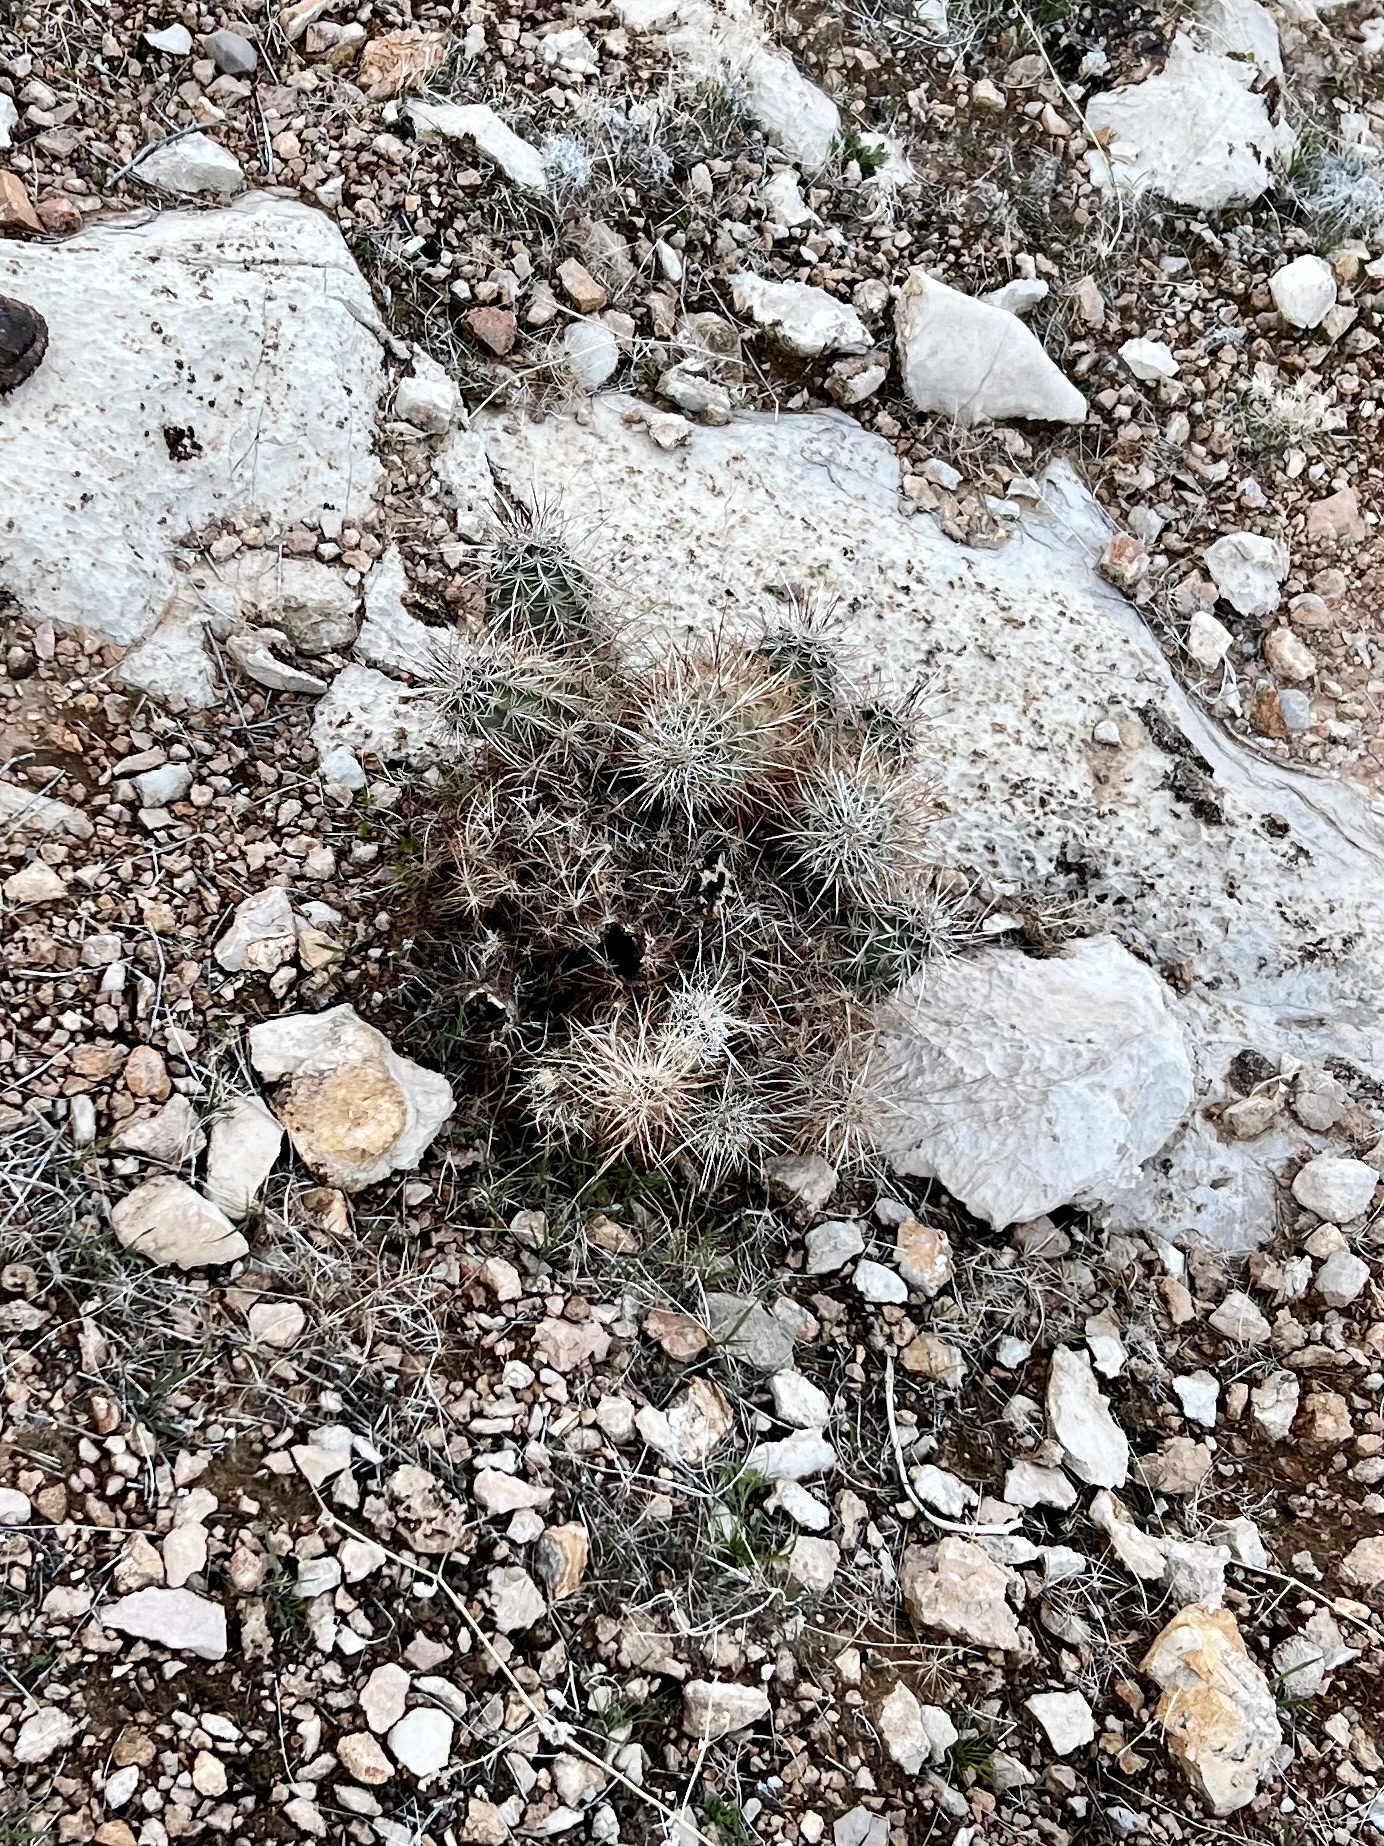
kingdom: Plantae
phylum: Tracheophyta
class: Magnoliopsida
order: Caryophyllales
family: Cactaceae
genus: Echinocereus
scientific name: Echinocereus engelmannii
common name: Engelmann's hedgehog cactus
